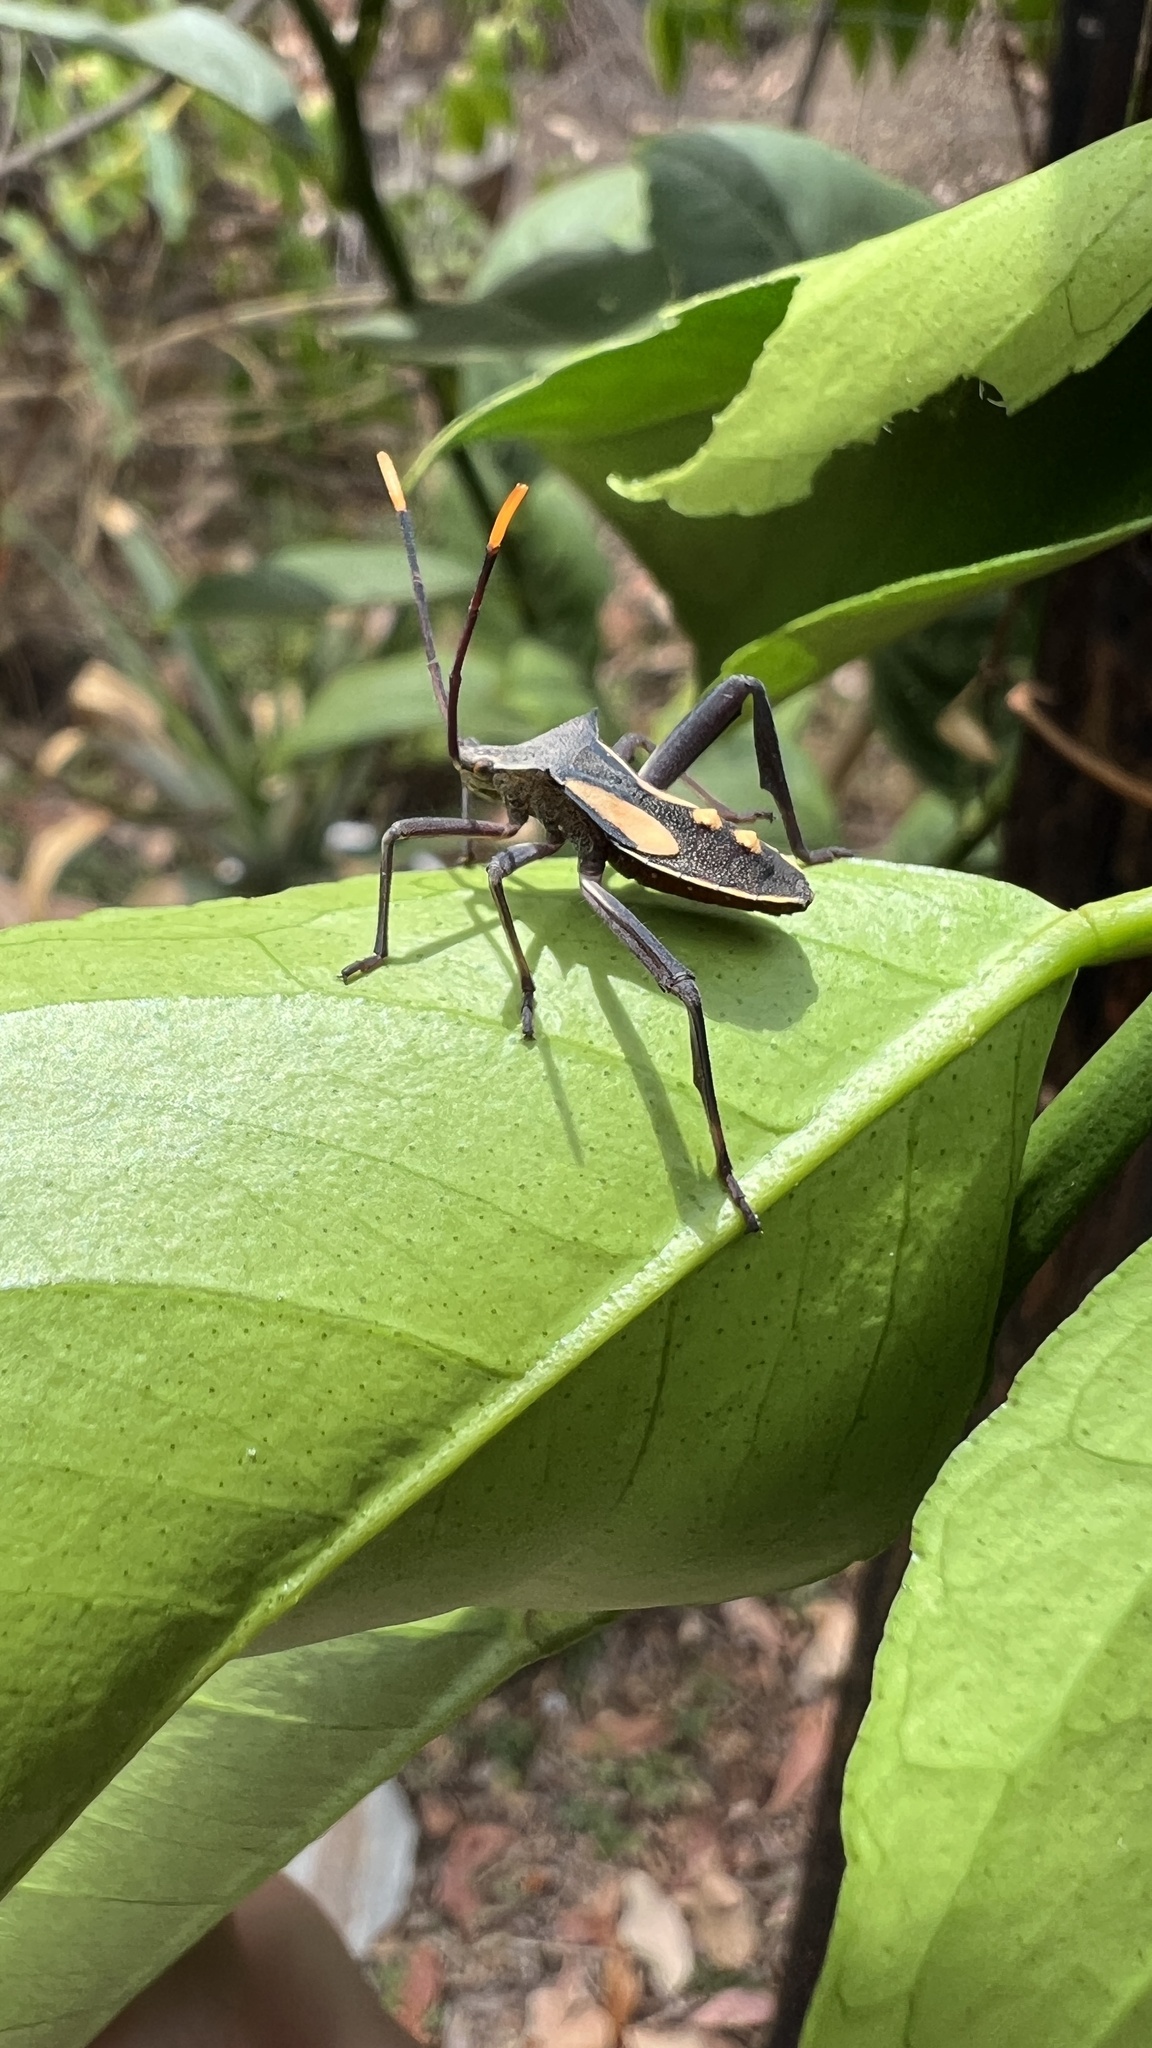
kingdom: Animalia
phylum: Arthropoda
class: Insecta
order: Hemiptera
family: Coreidae
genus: Mictis
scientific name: Mictis profana
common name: Crusader bug
